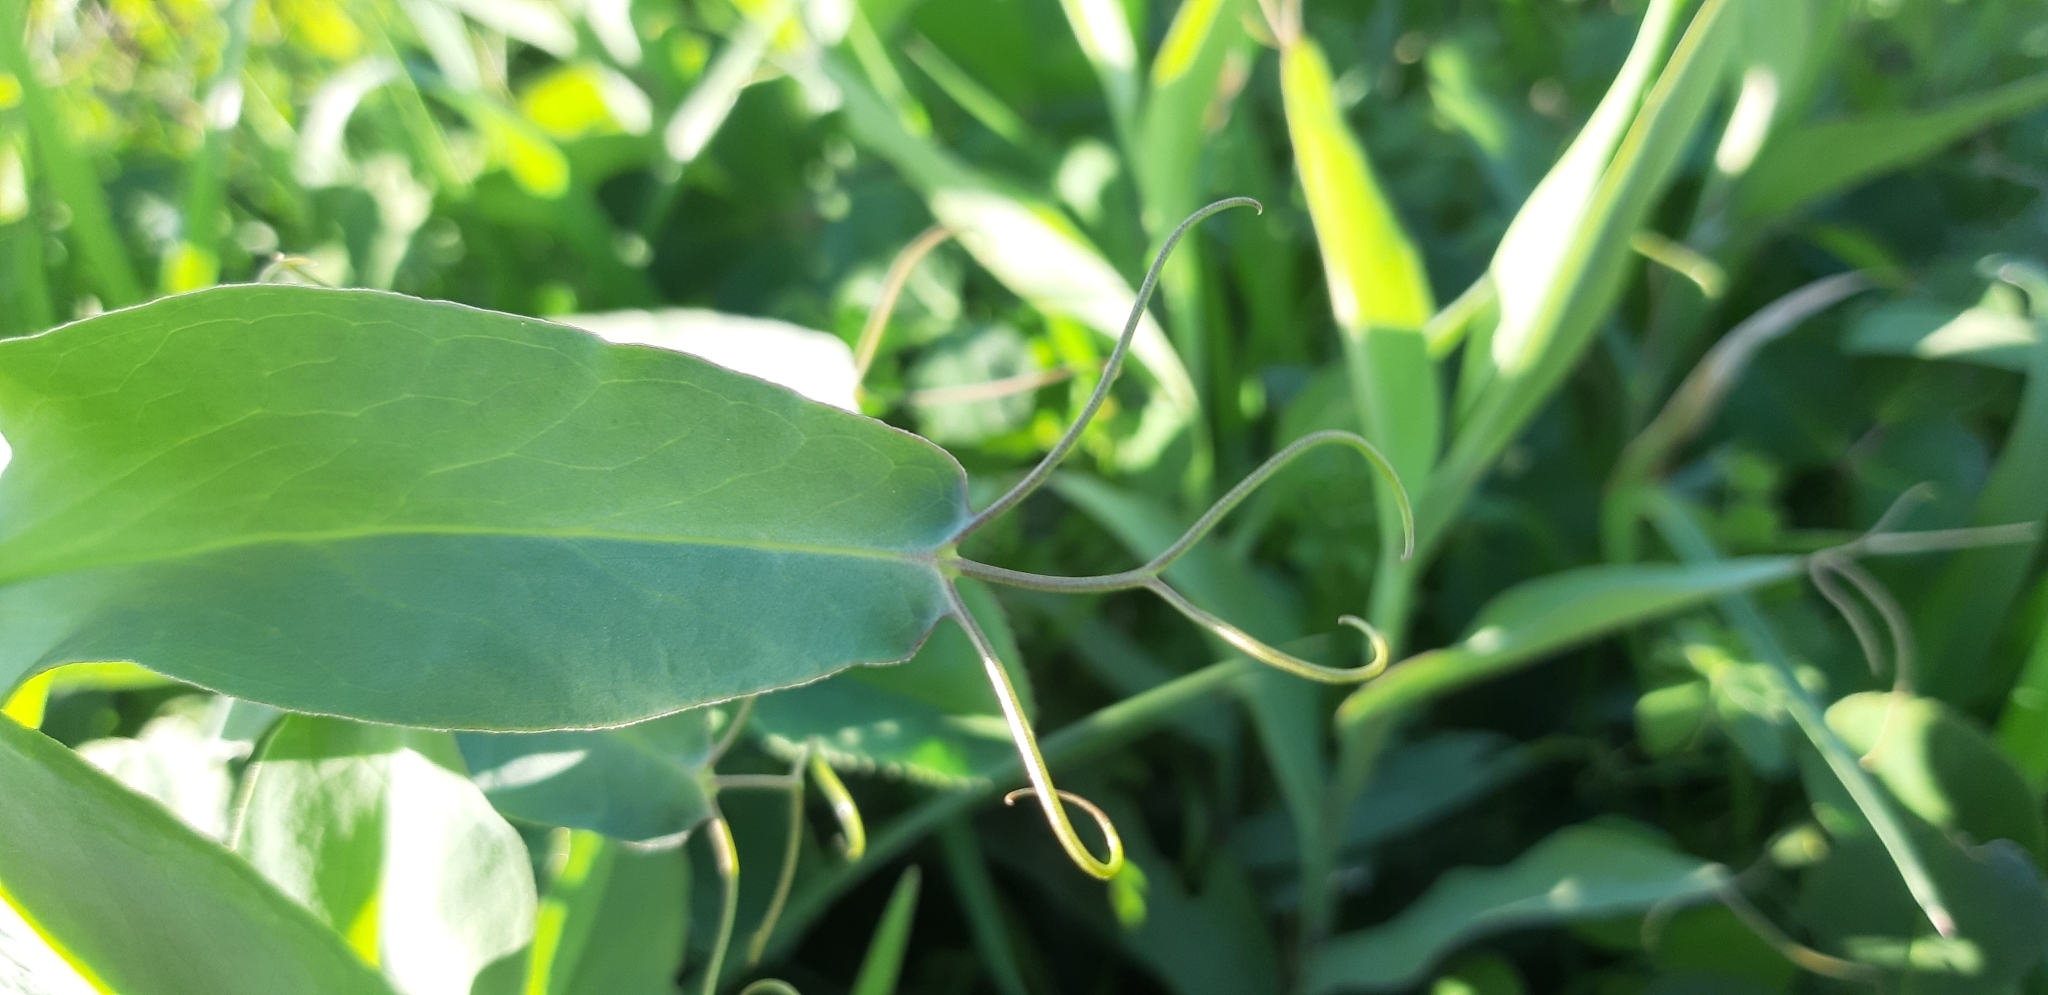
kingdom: Plantae
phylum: Tracheophyta
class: Magnoliopsida
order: Fabales
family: Fabaceae
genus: Lathyrus
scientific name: Lathyrus ochrus
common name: Winged vetchling
